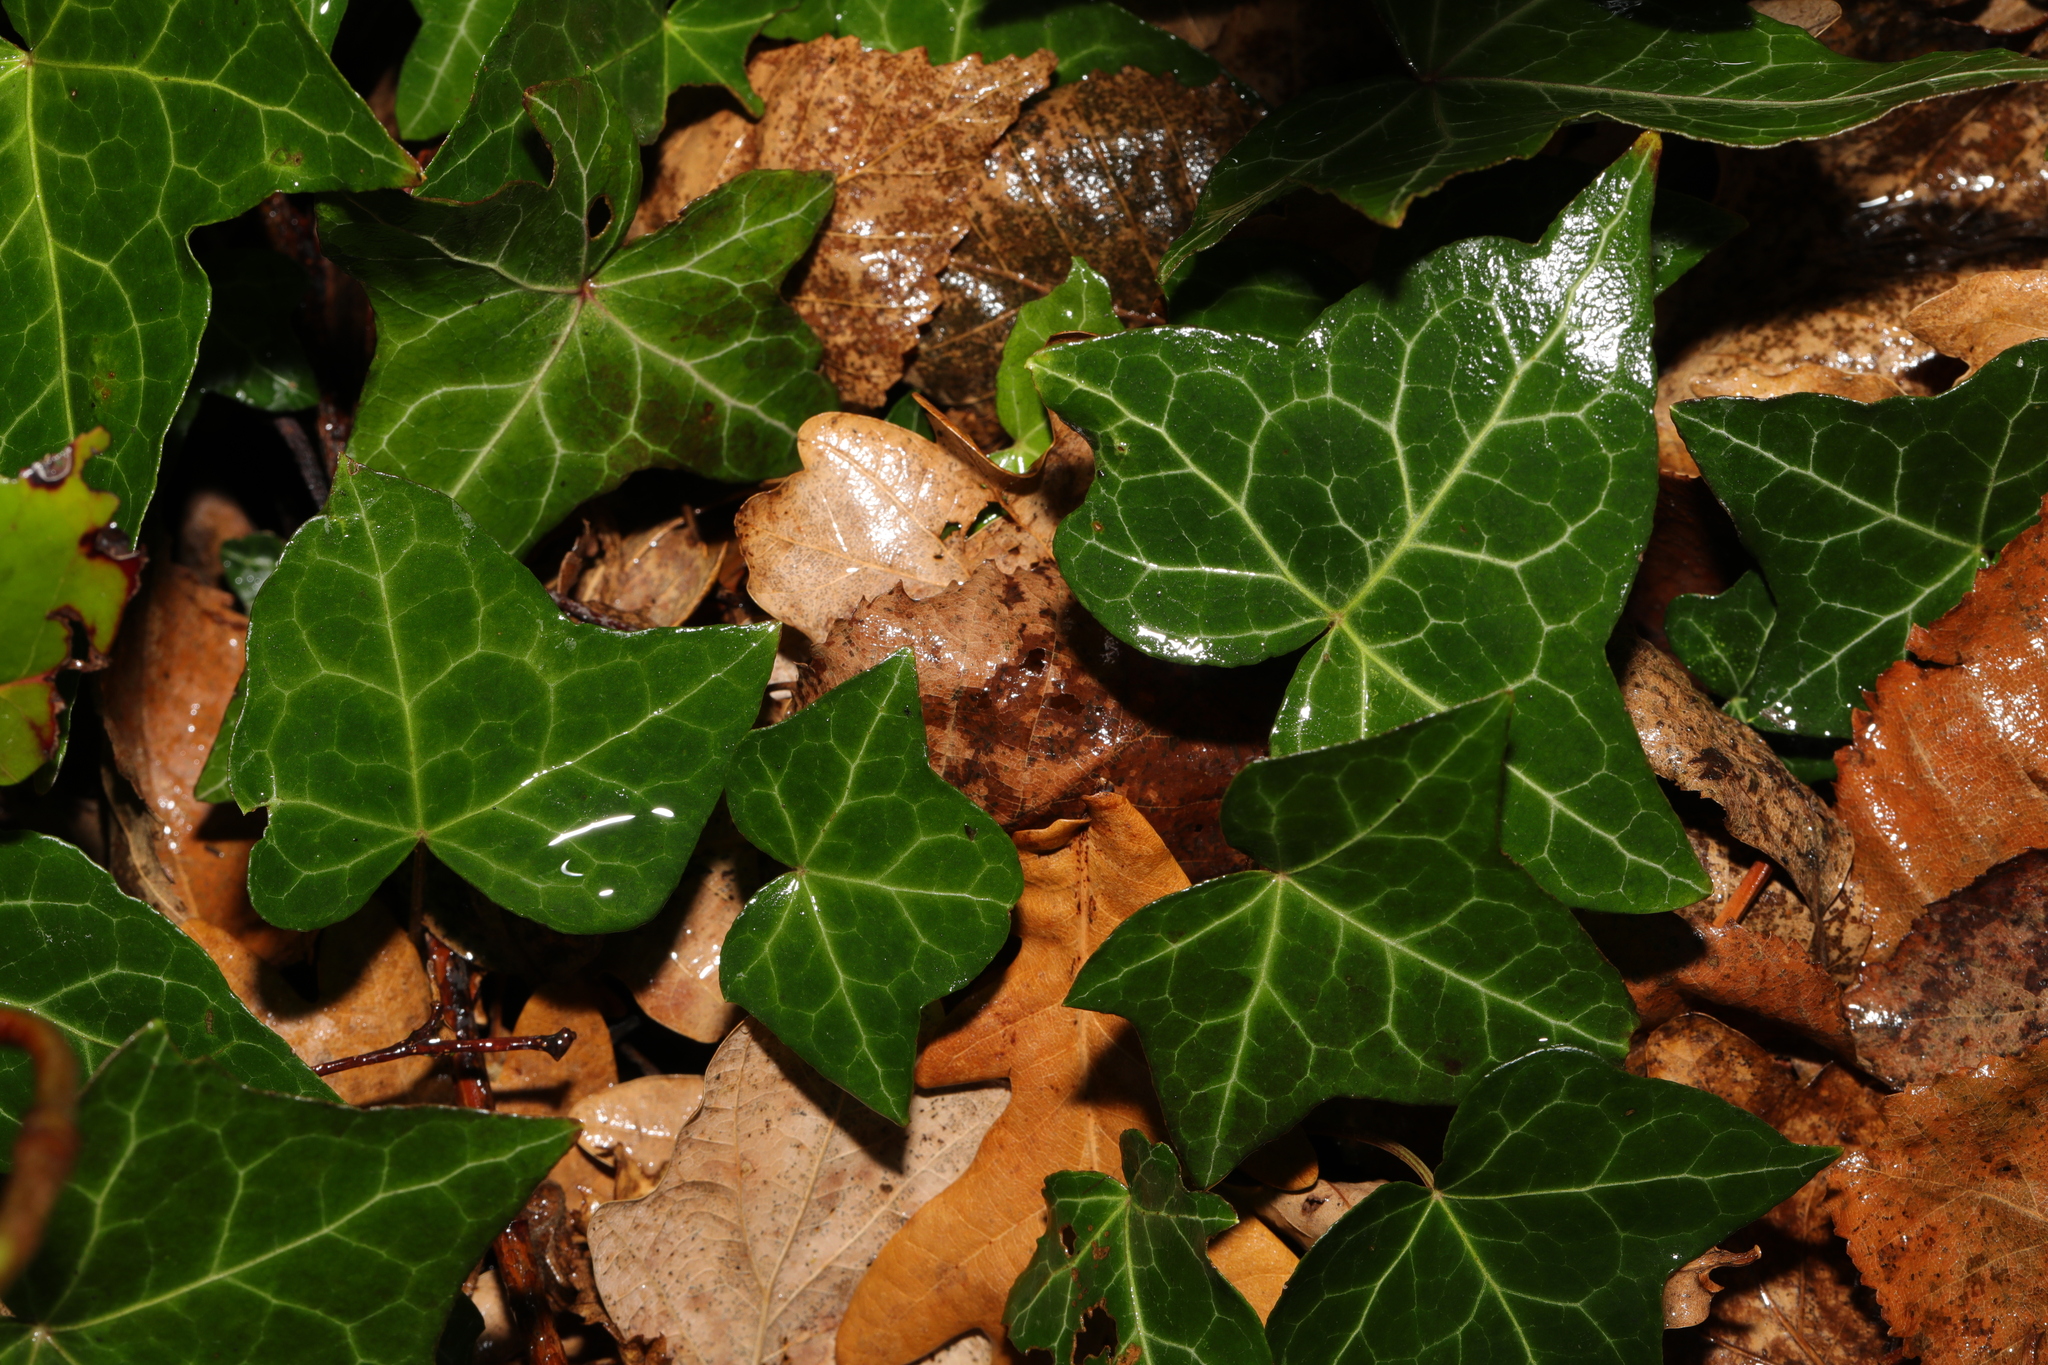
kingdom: Plantae
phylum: Tracheophyta
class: Magnoliopsida
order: Apiales
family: Araliaceae
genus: Hedera
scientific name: Hedera helix
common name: Ivy
